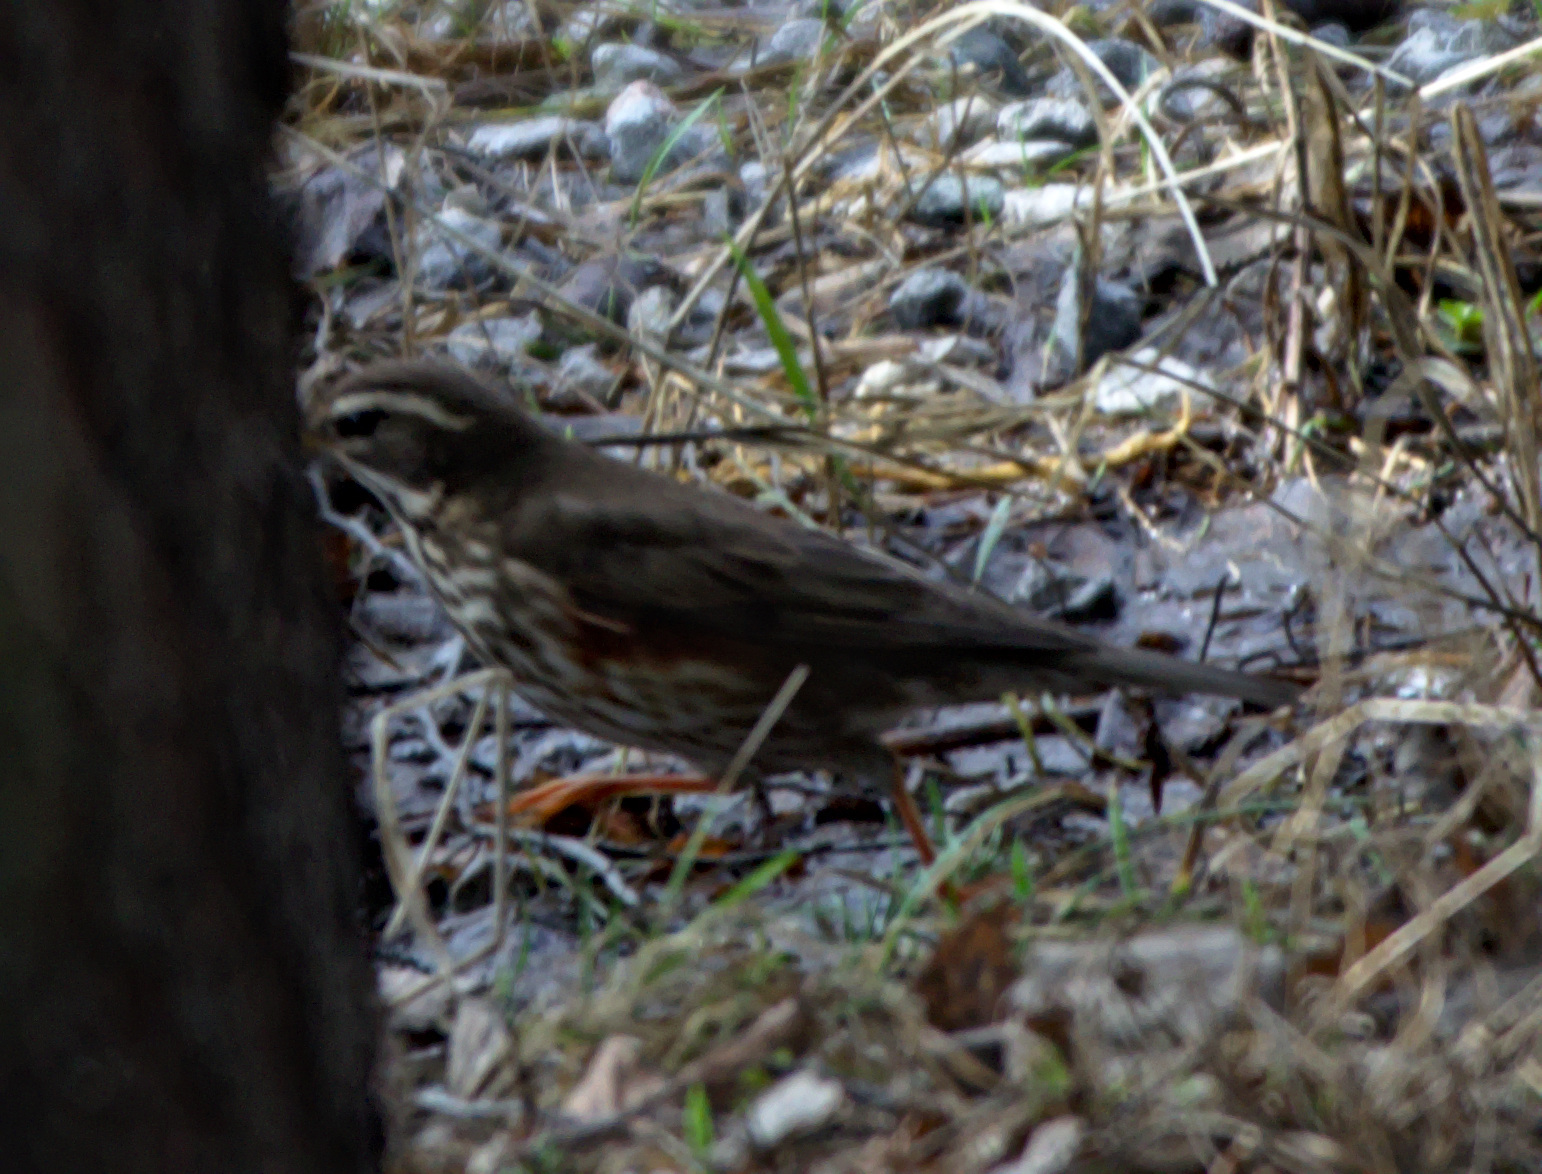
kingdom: Animalia
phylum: Chordata
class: Aves
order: Passeriformes
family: Turdidae
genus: Turdus
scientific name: Turdus iliacus
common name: Redwing
